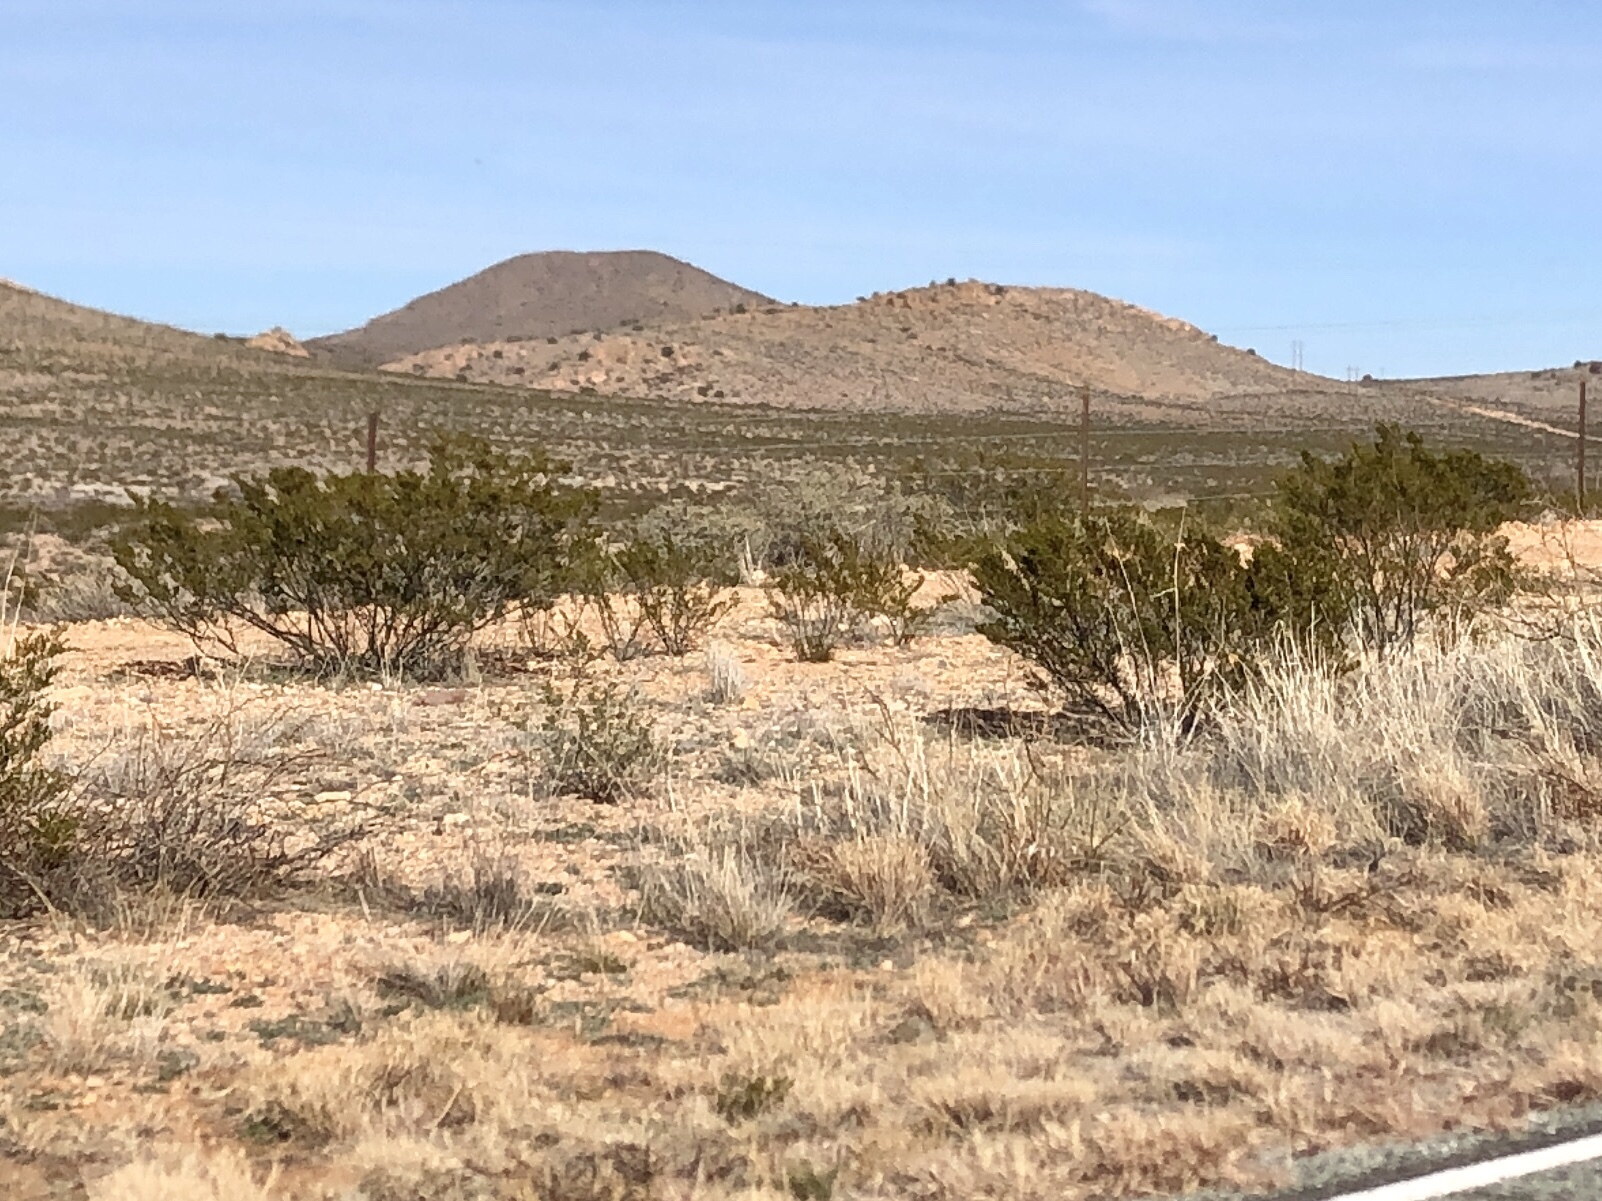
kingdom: Plantae
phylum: Tracheophyta
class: Magnoliopsida
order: Zygophyllales
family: Zygophyllaceae
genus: Larrea
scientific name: Larrea tridentata
